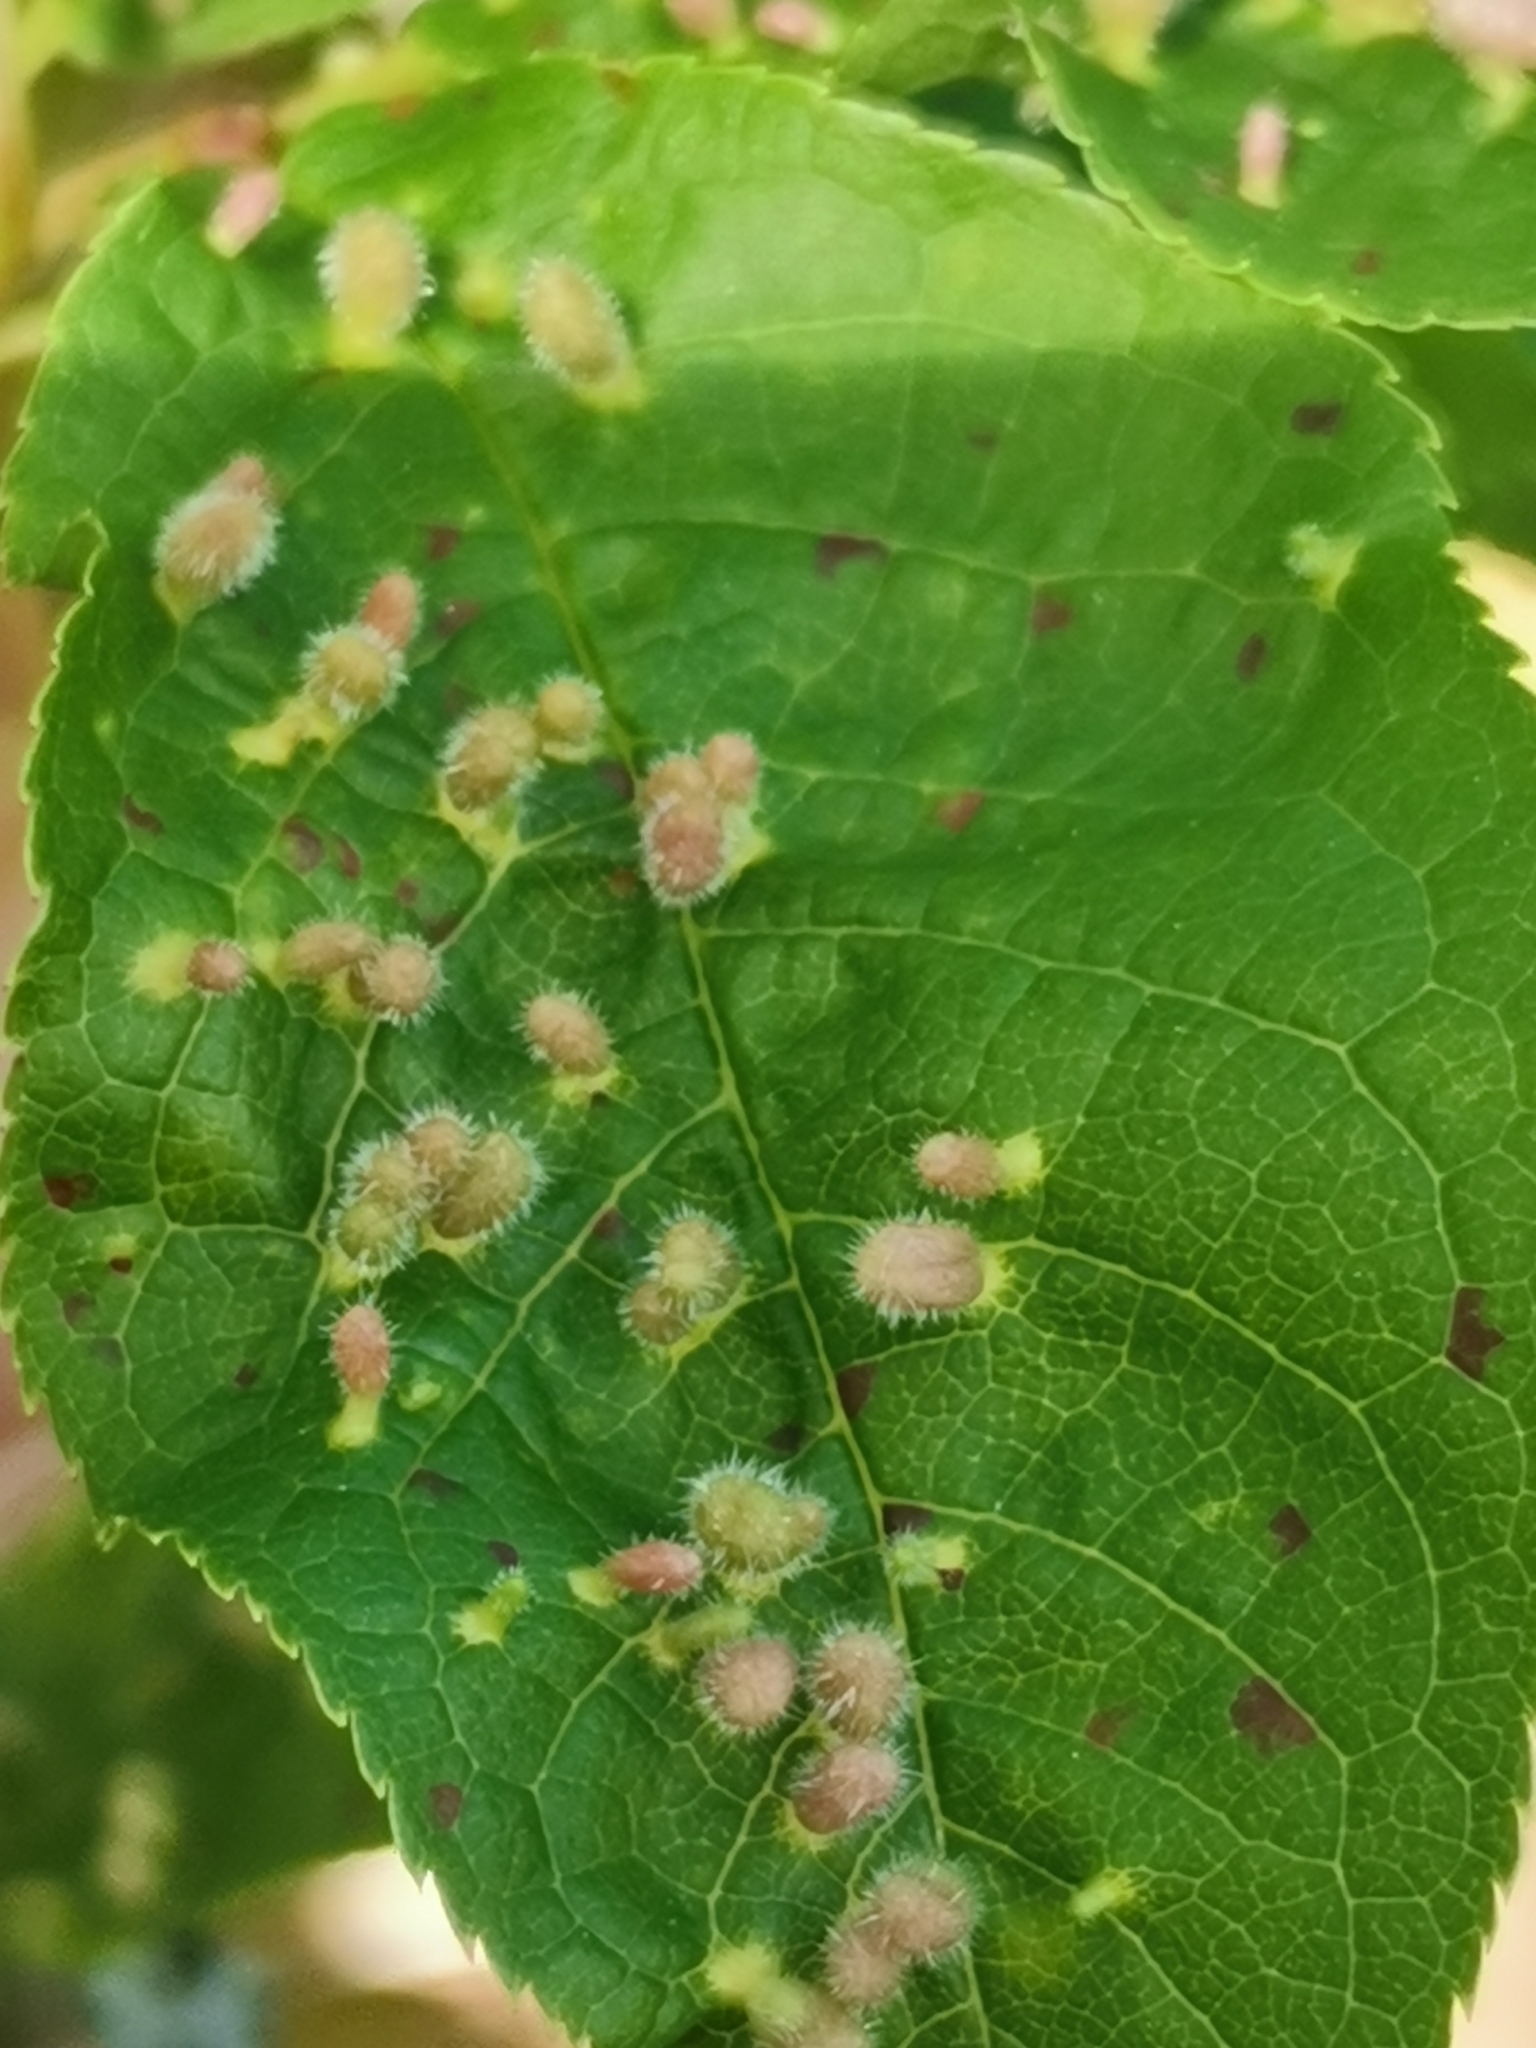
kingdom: Animalia
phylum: Arthropoda
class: Arachnida
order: Trombidiformes
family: Eriophyidae
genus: Phyllocoptes
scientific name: Phyllocoptes eupadi
